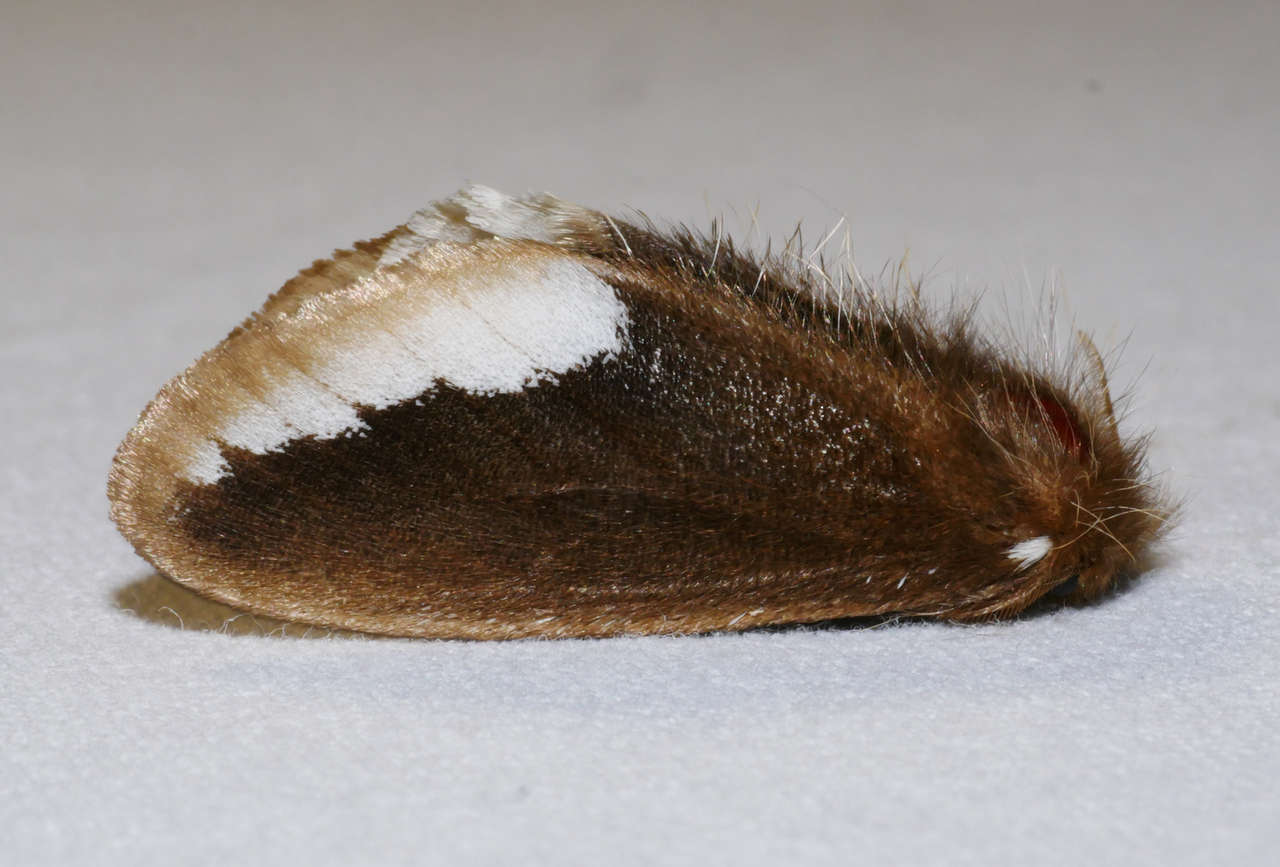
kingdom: Animalia
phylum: Arthropoda
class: Insecta
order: Lepidoptera
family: Erebidae
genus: Euproctis
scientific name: Euproctis
